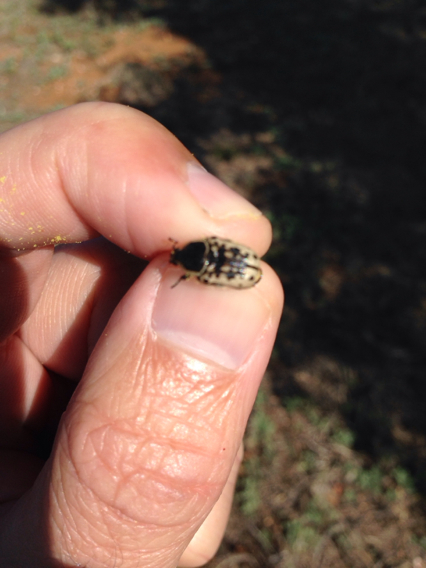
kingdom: Animalia
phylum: Arthropoda
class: Insecta
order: Coleoptera
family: Scarabaeidae
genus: Euphoria
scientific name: Euphoria kernii
